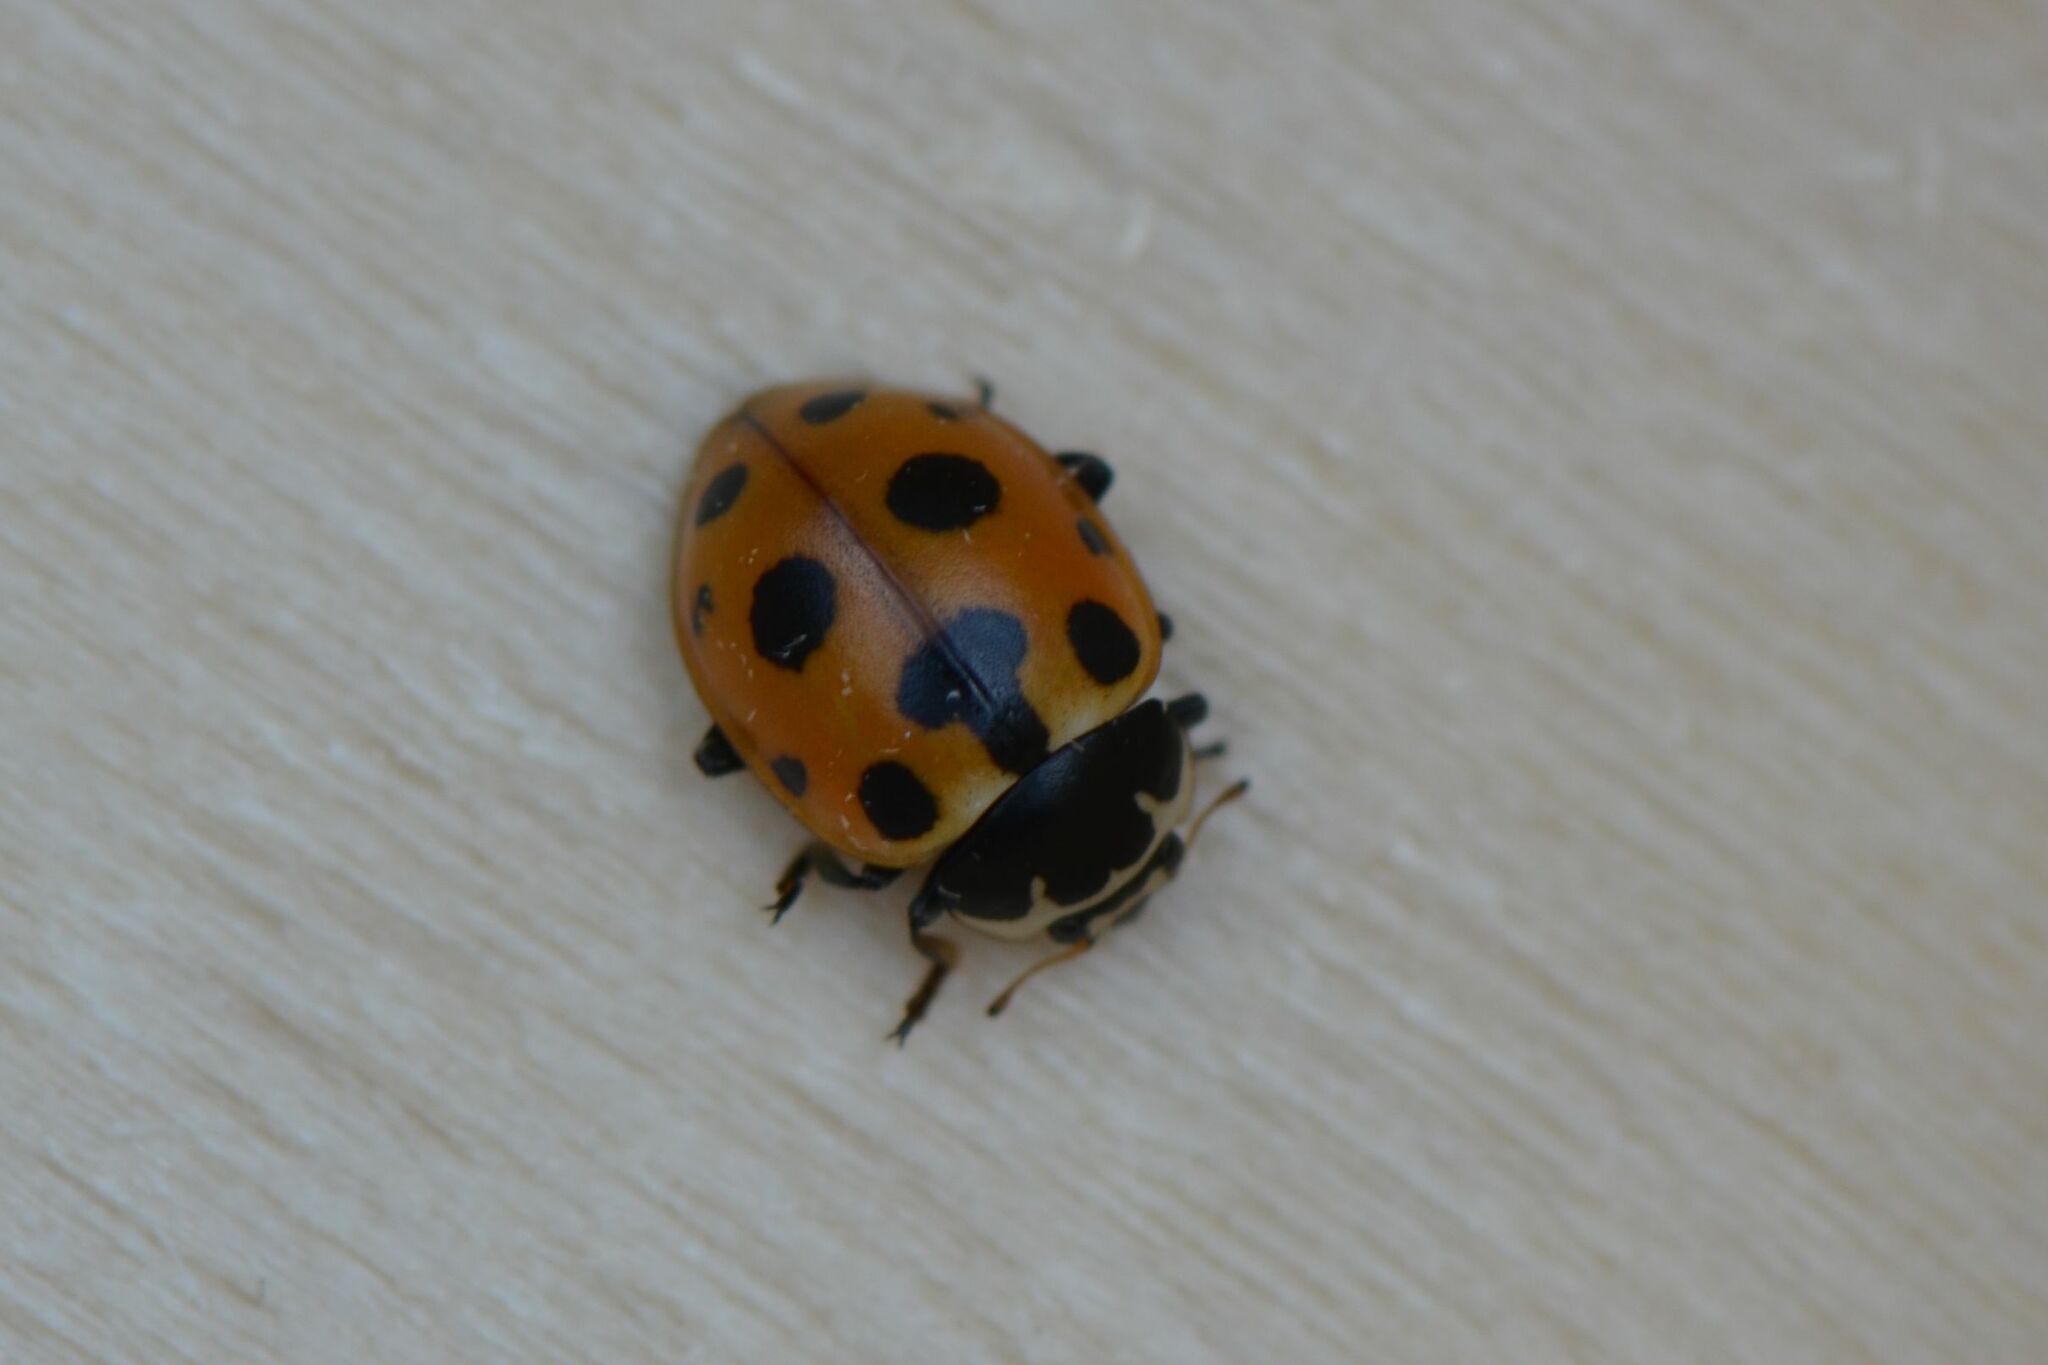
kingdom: Animalia
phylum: Arthropoda
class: Insecta
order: Coleoptera
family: Coccinellidae
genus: Ceratomegilla
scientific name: Ceratomegilla notata
